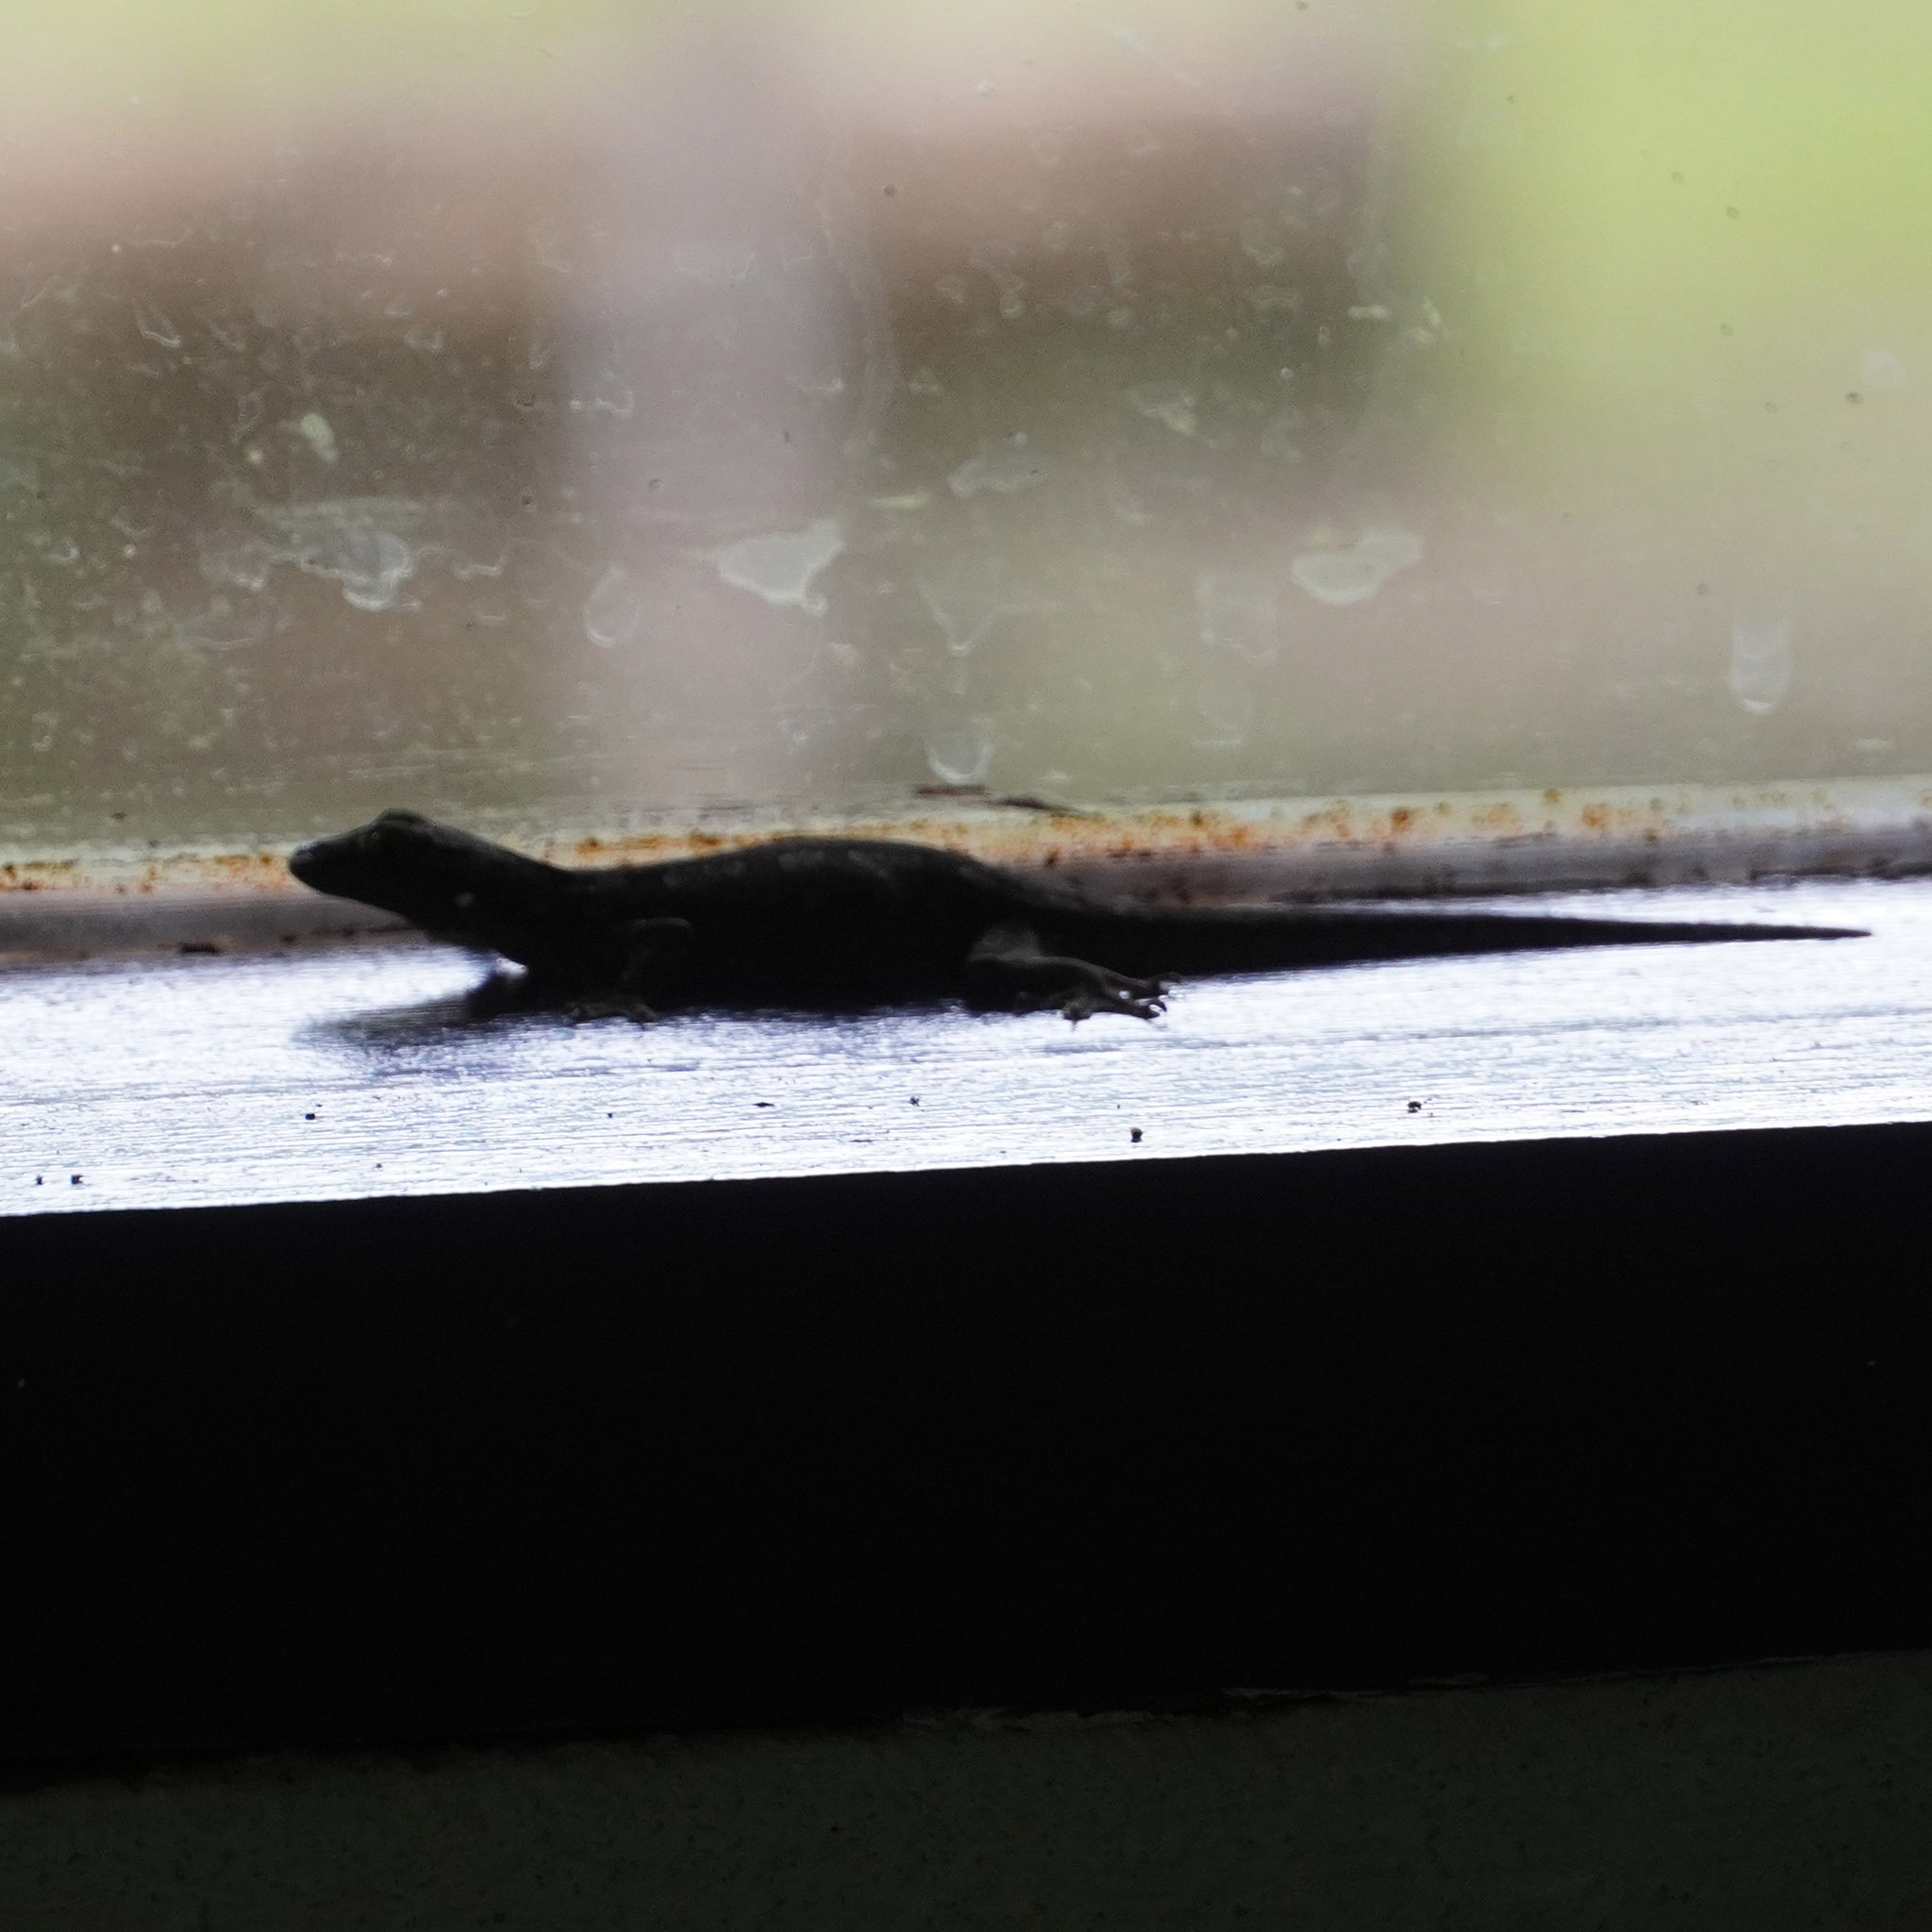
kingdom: Animalia
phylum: Chordata
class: Squamata
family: Gekkonidae
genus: Hemidactylus
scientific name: Hemidactylus platyurus
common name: Flat-tailed house gecko
